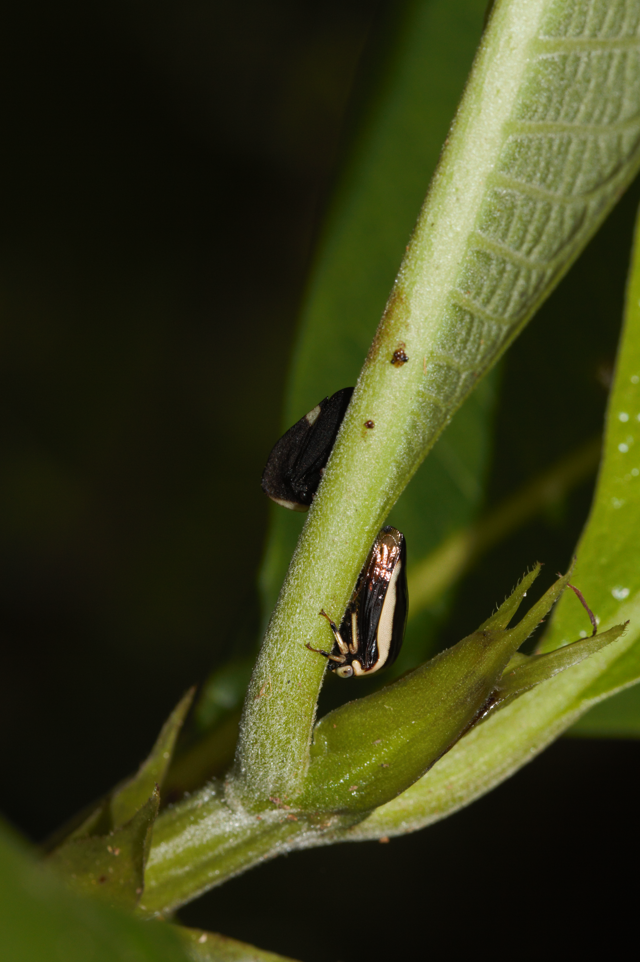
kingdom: Animalia
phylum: Arthropoda
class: Insecta
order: Hemiptera
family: Membracidae
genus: Darnis
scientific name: Darnis lateralis
